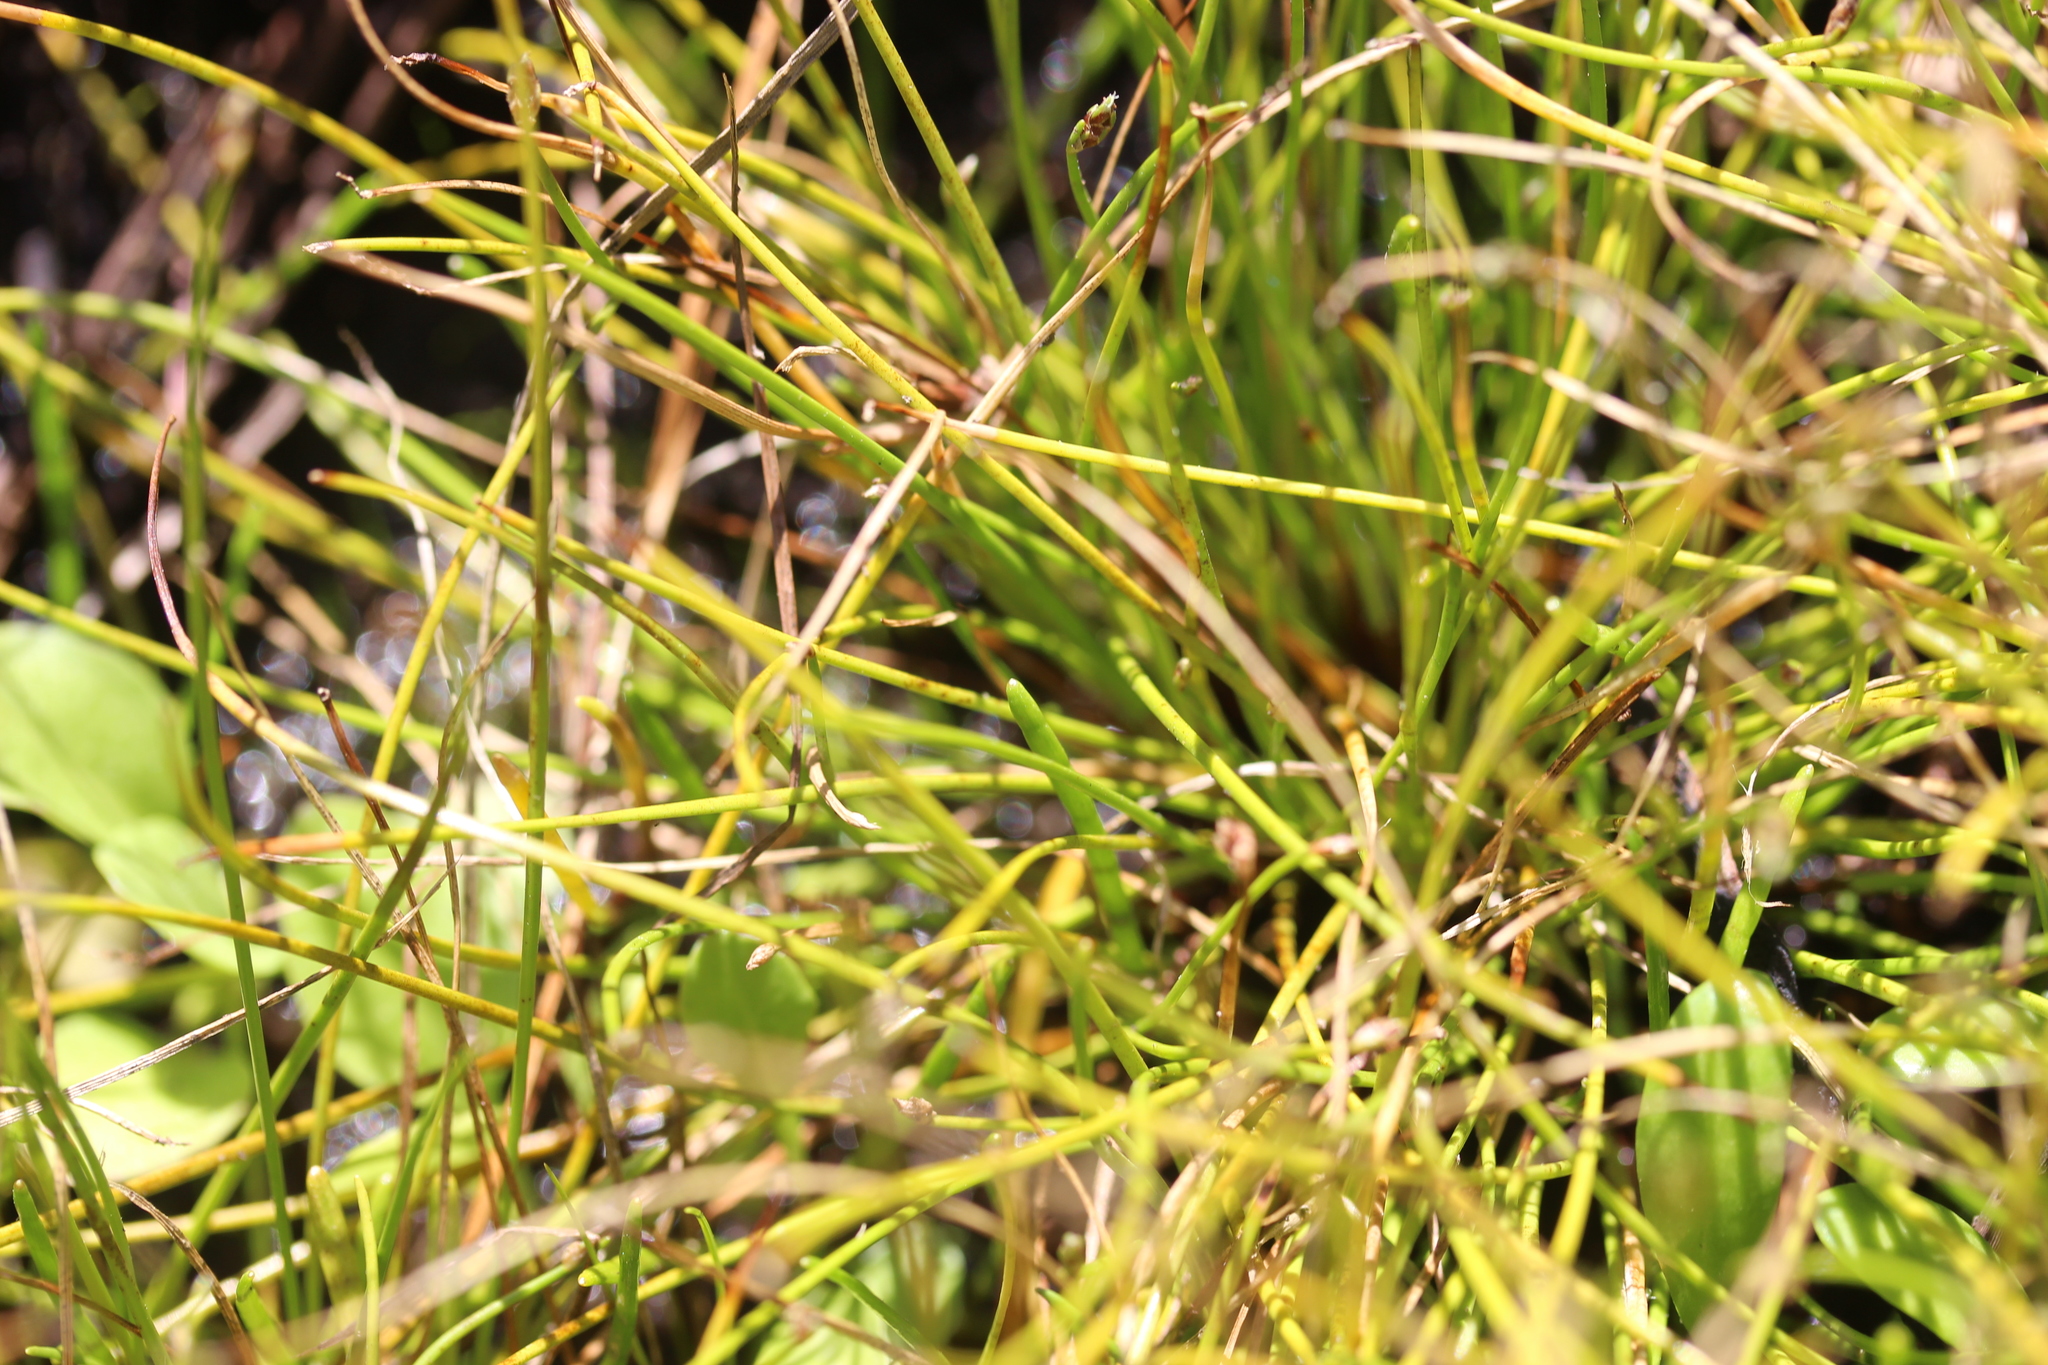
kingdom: Plantae
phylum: Tracheophyta
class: Liliopsida
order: Poales
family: Cyperaceae
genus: Isolepis
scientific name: Isolepis cernua
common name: Slender club-rush
